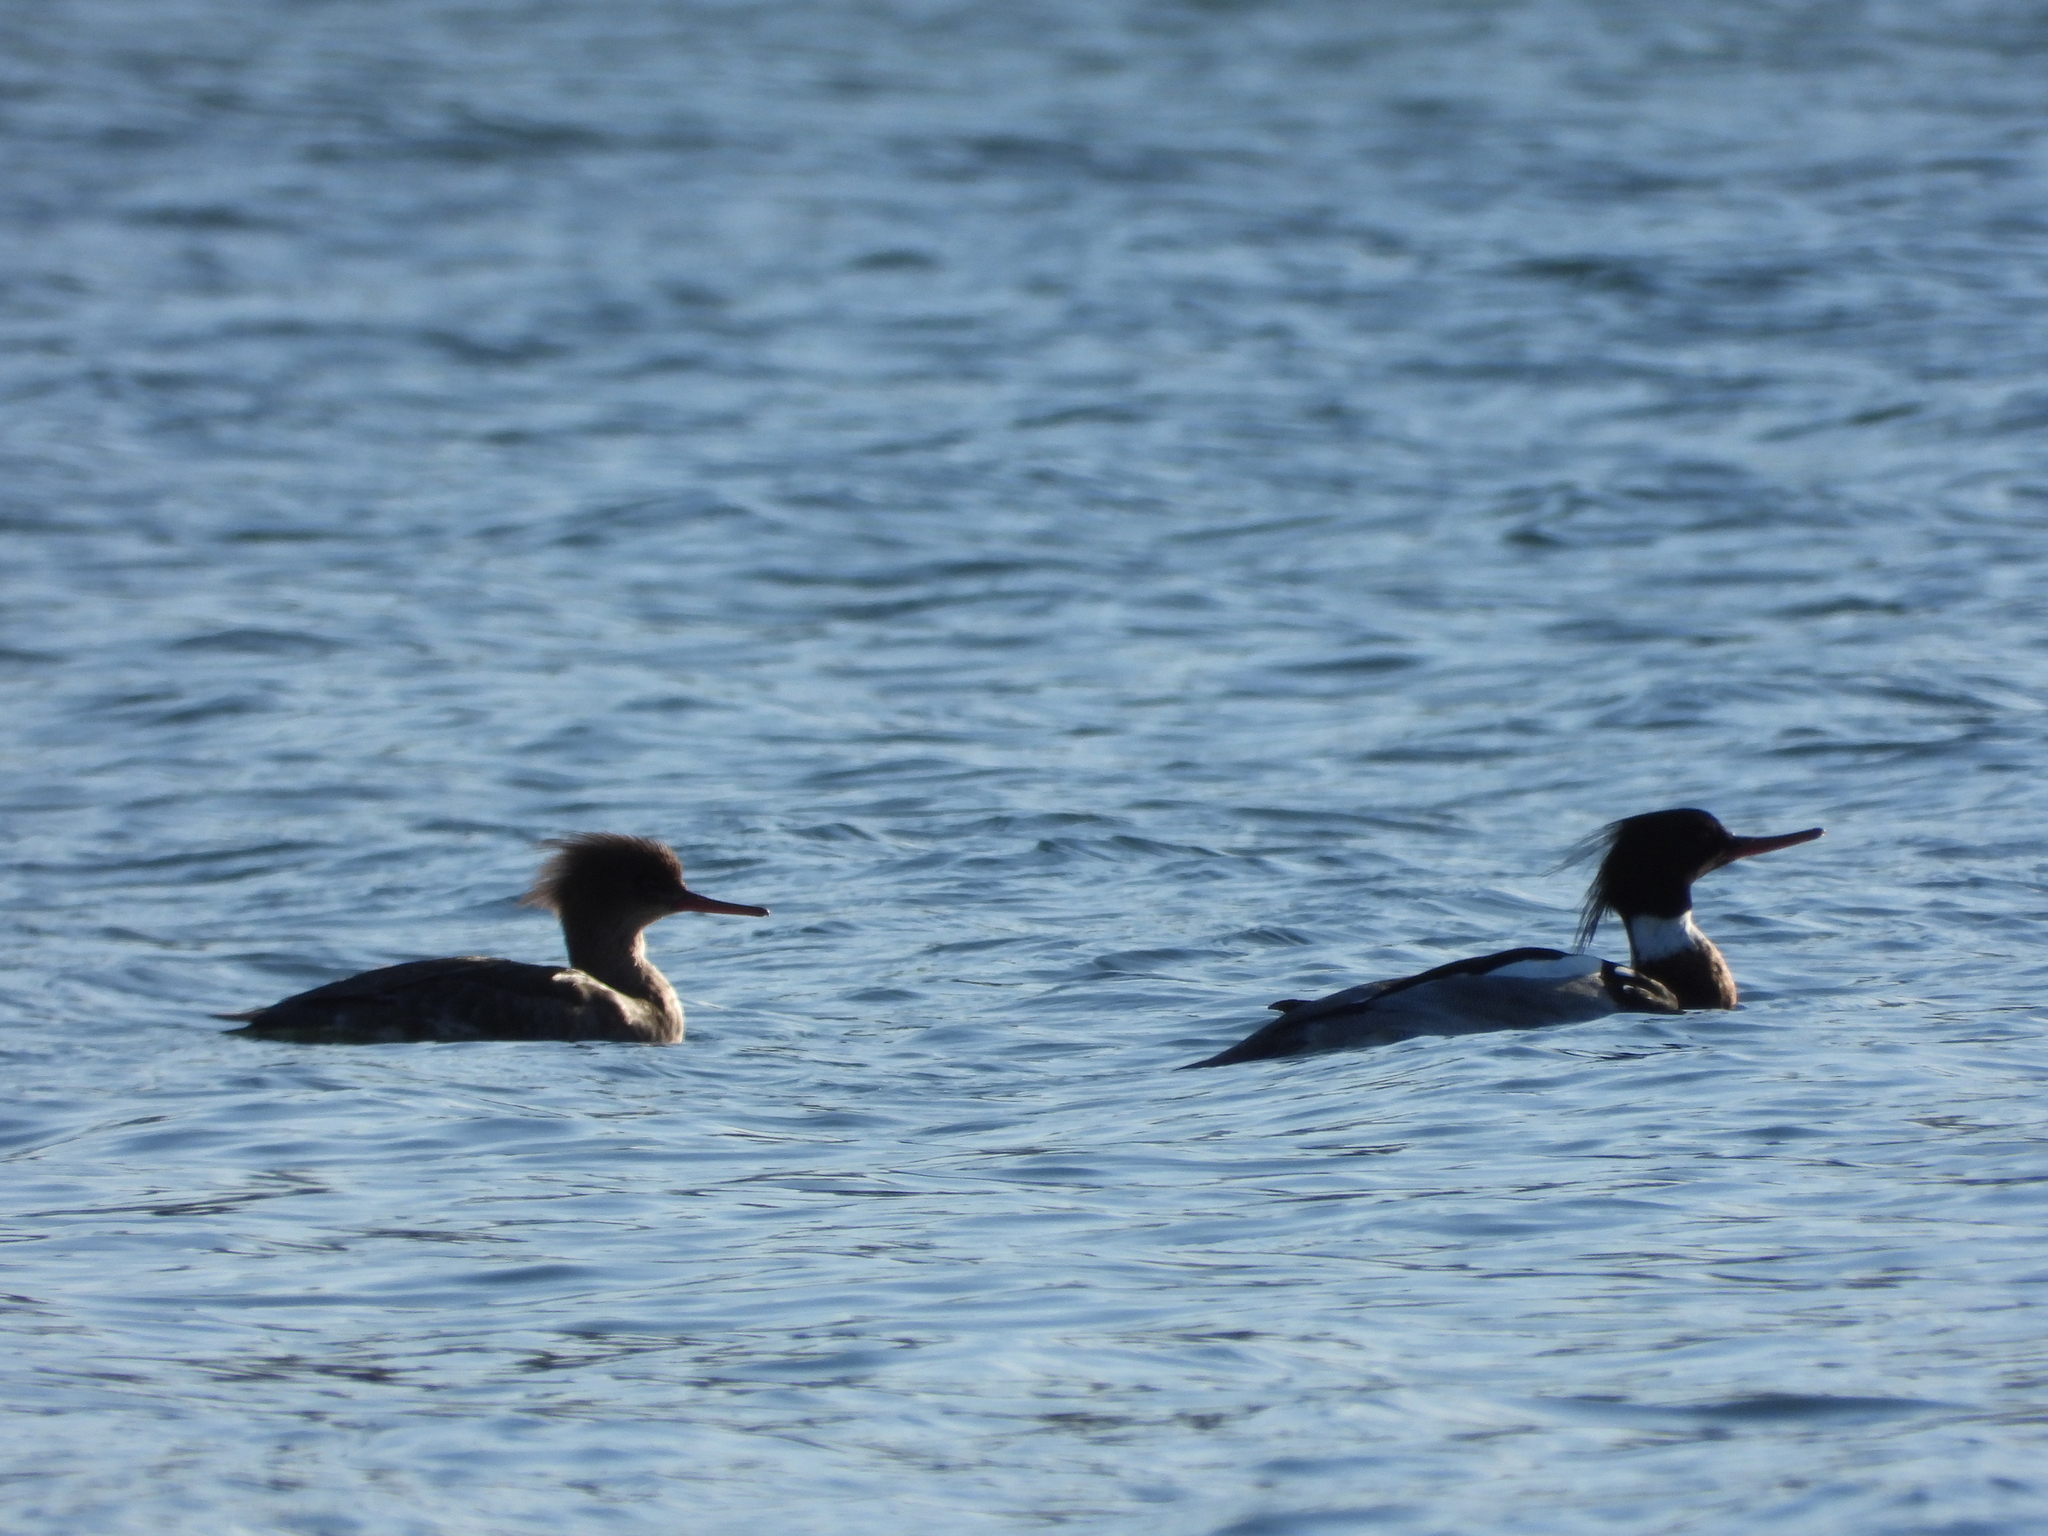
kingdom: Animalia
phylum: Chordata
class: Aves
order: Anseriformes
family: Anatidae
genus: Mergus
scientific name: Mergus serrator
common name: Red-breasted merganser
